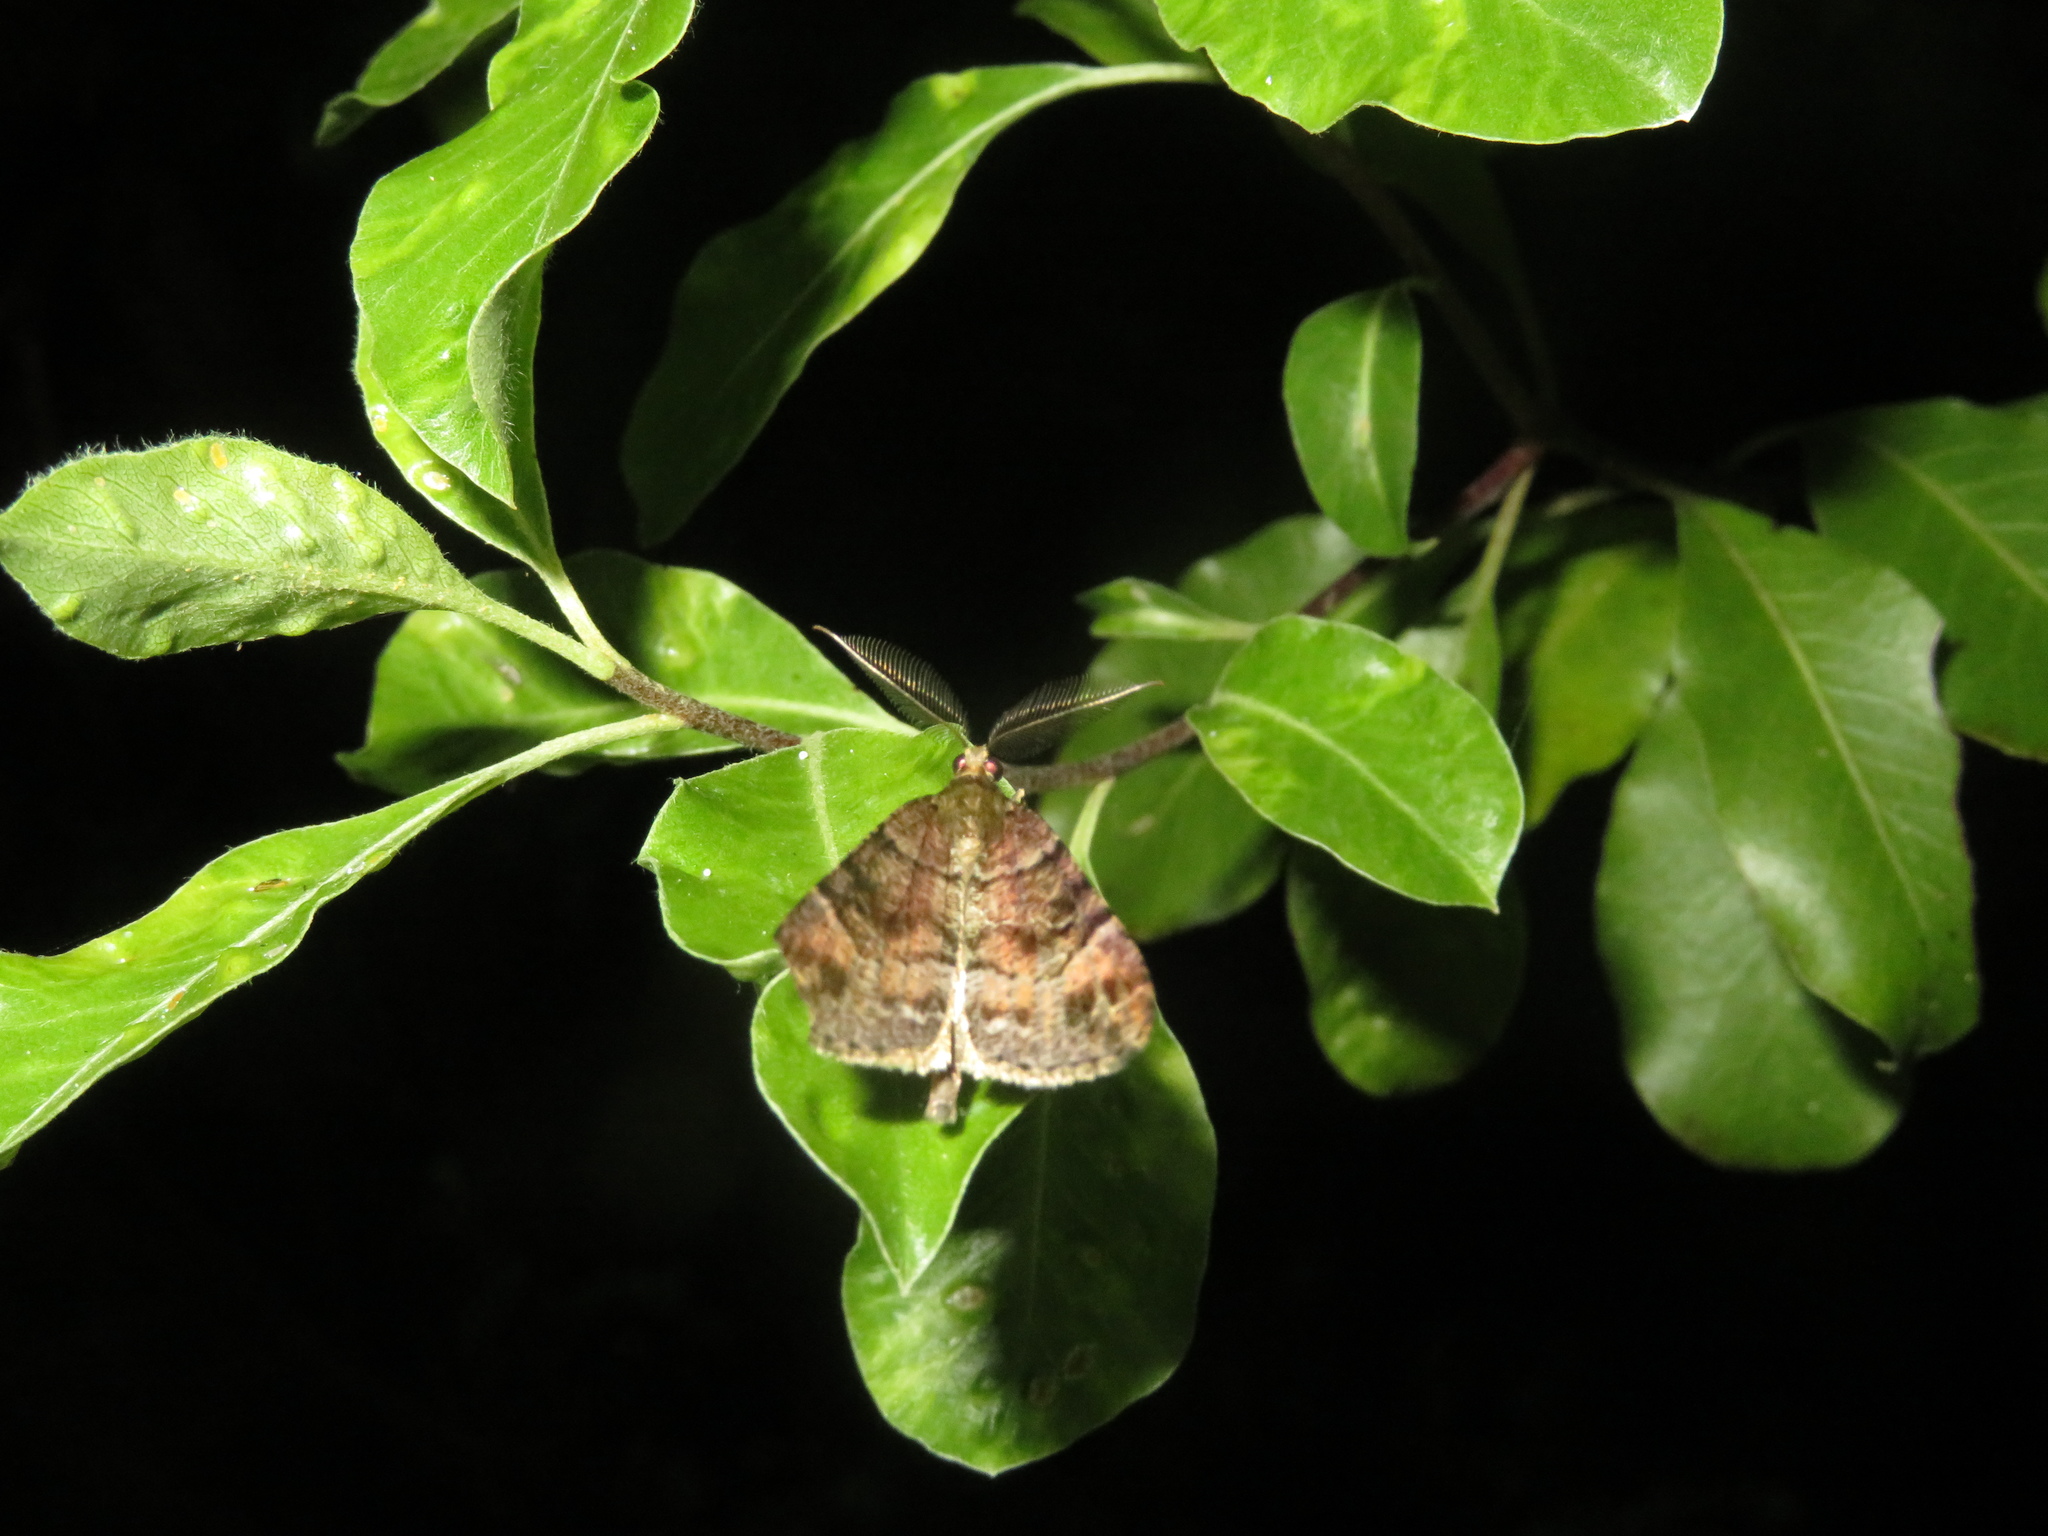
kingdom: Animalia
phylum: Arthropoda
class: Insecta
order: Lepidoptera
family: Geometridae
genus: Pseudocoremia
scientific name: Pseudocoremia productata
